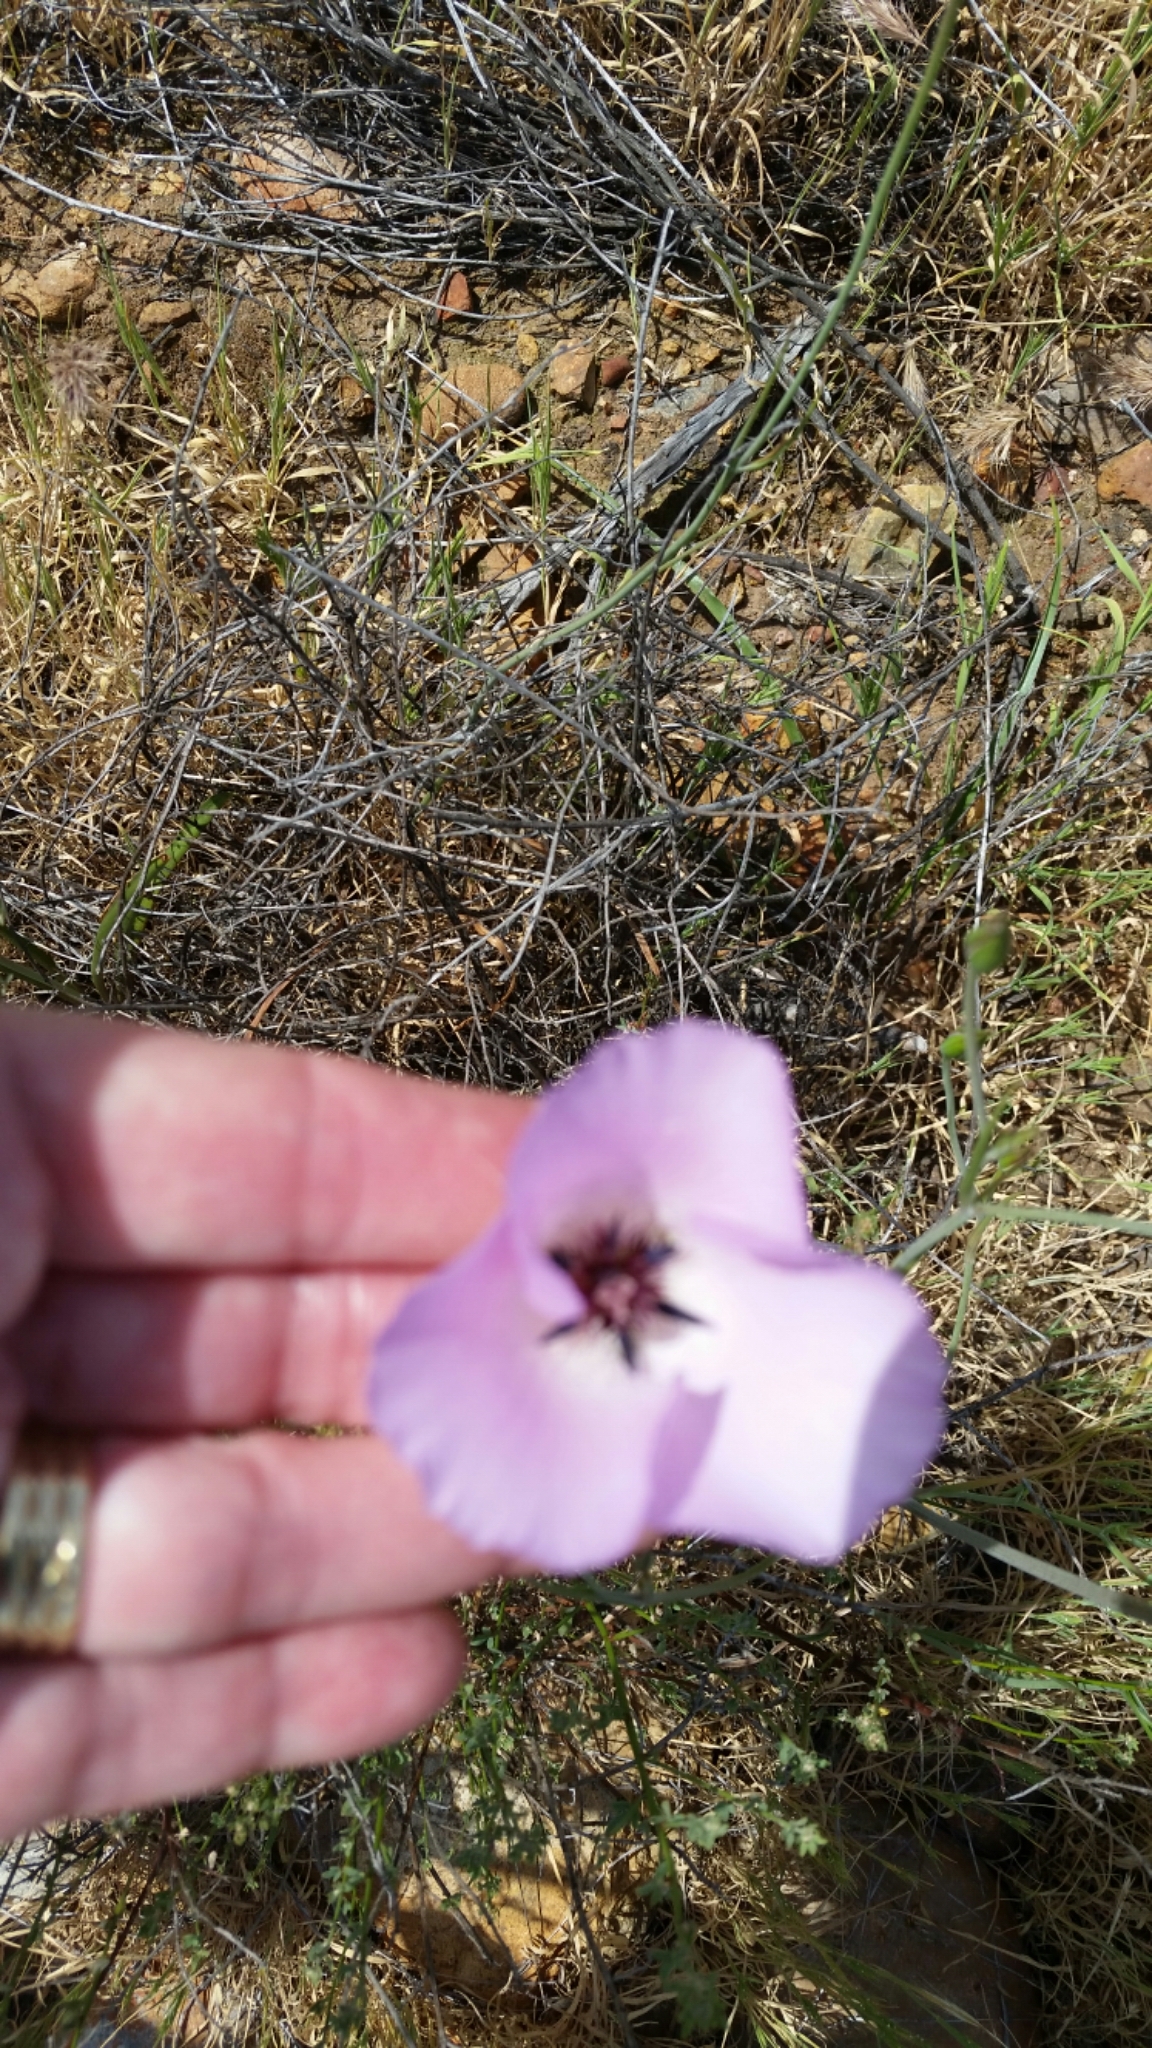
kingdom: Plantae
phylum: Tracheophyta
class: Liliopsida
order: Liliales
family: Liliaceae
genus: Calochortus
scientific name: Calochortus splendens
